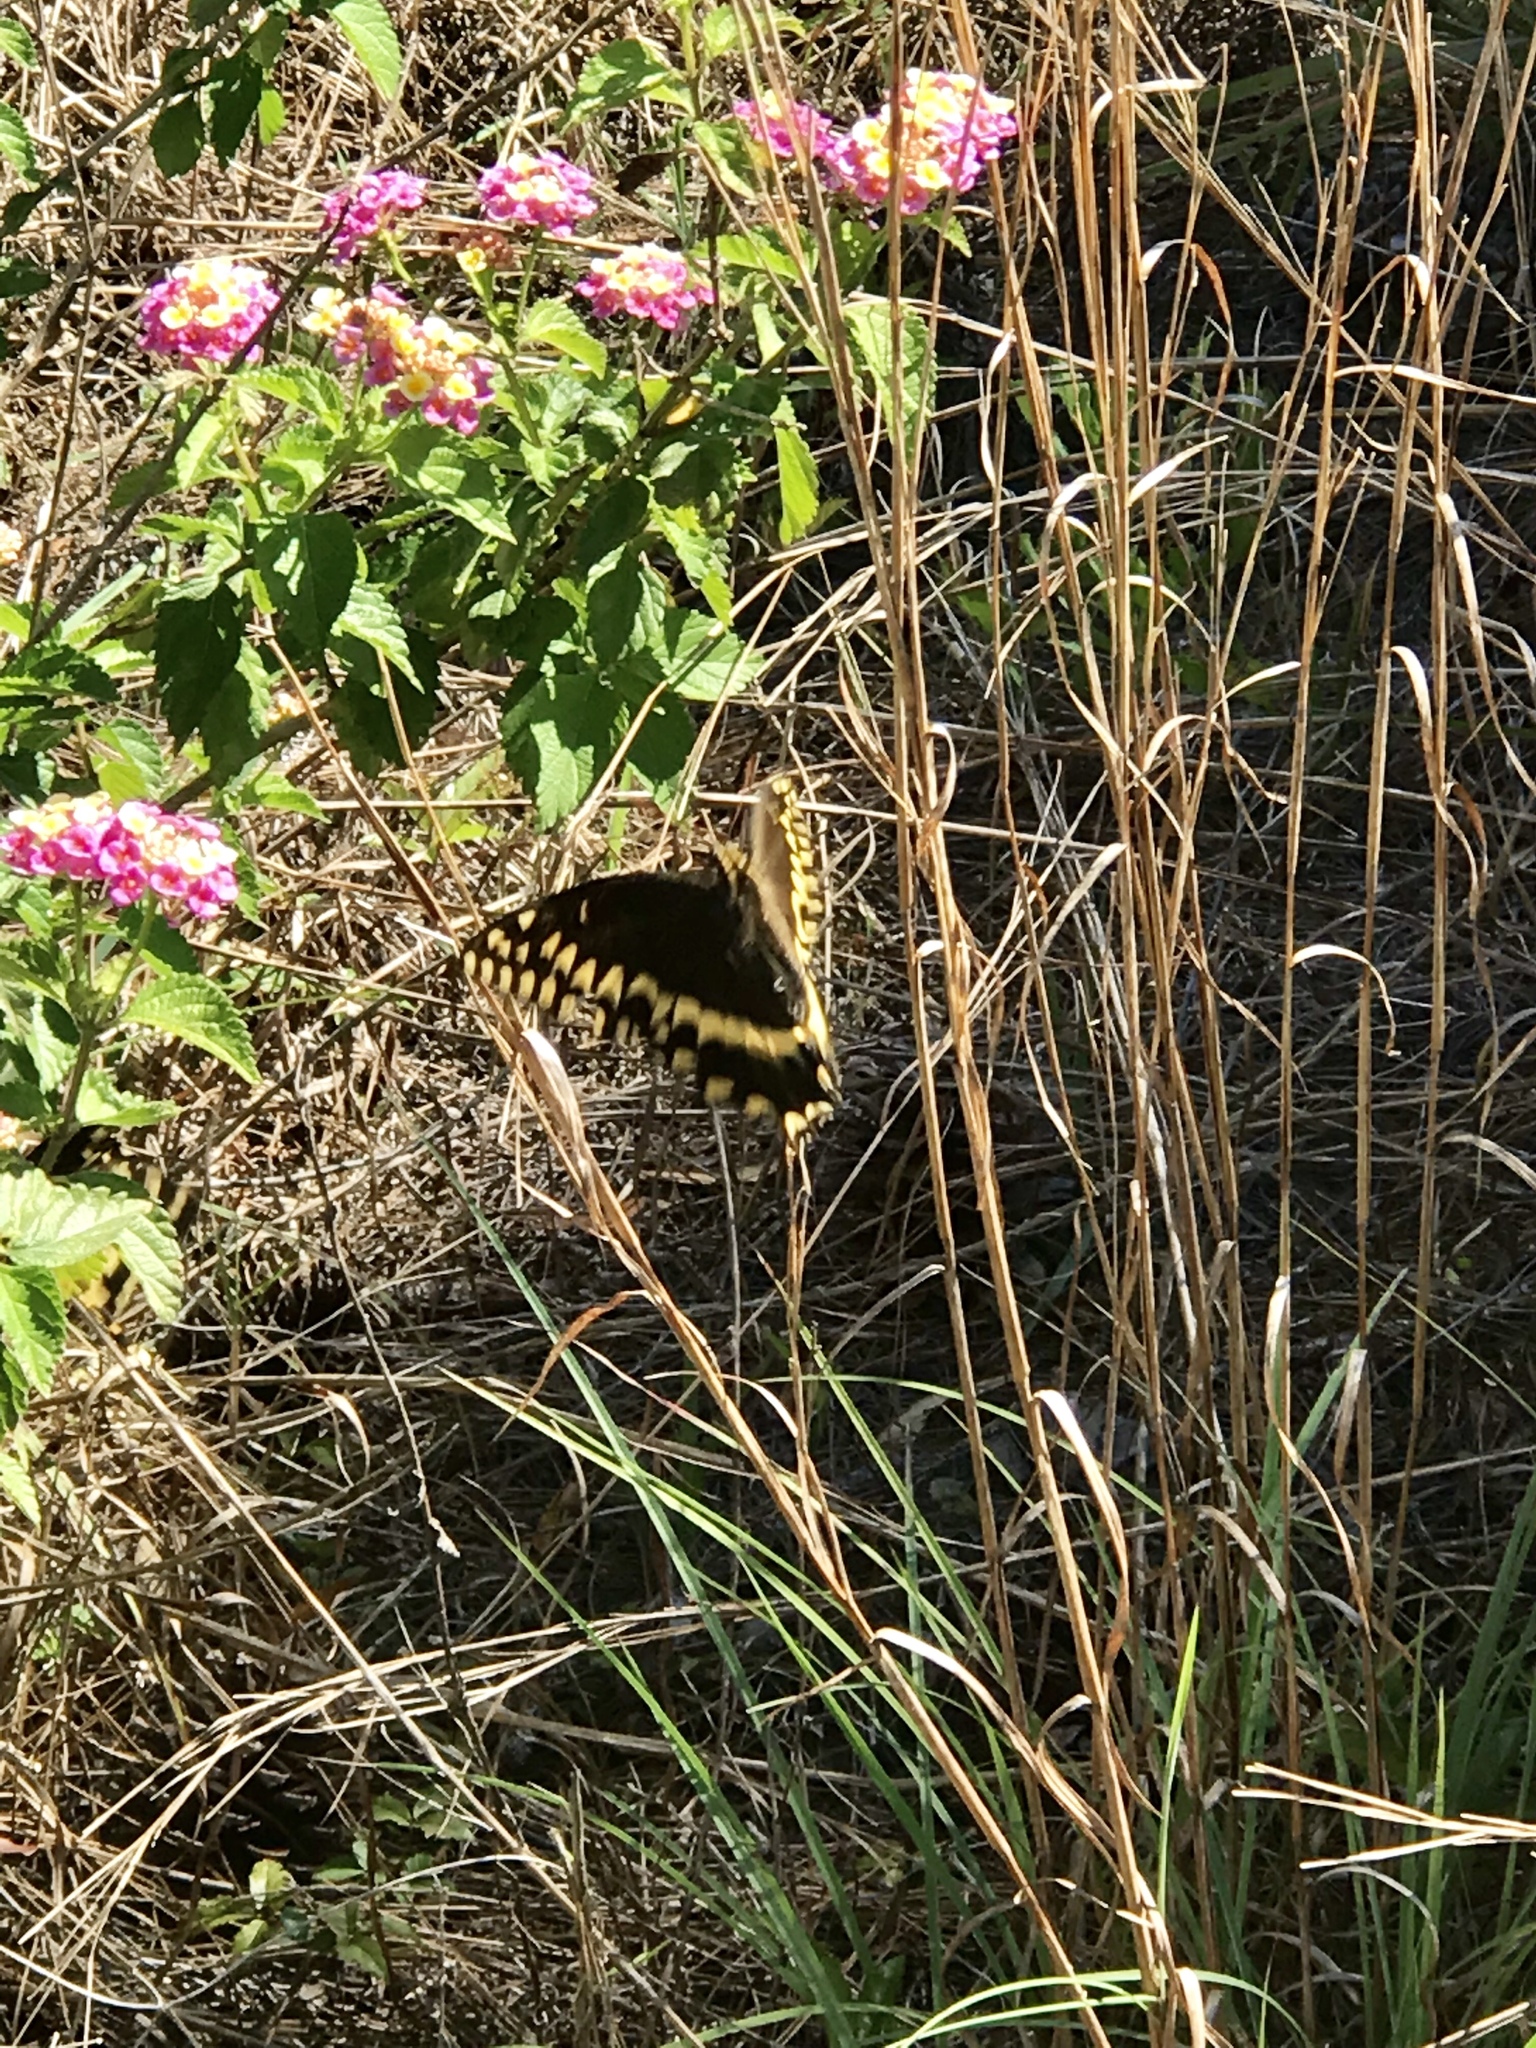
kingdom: Animalia
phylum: Arthropoda
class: Insecta
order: Lepidoptera
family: Papilionidae
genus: Papilio
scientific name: Papilio palamedes
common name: Palamedes swallowtail
